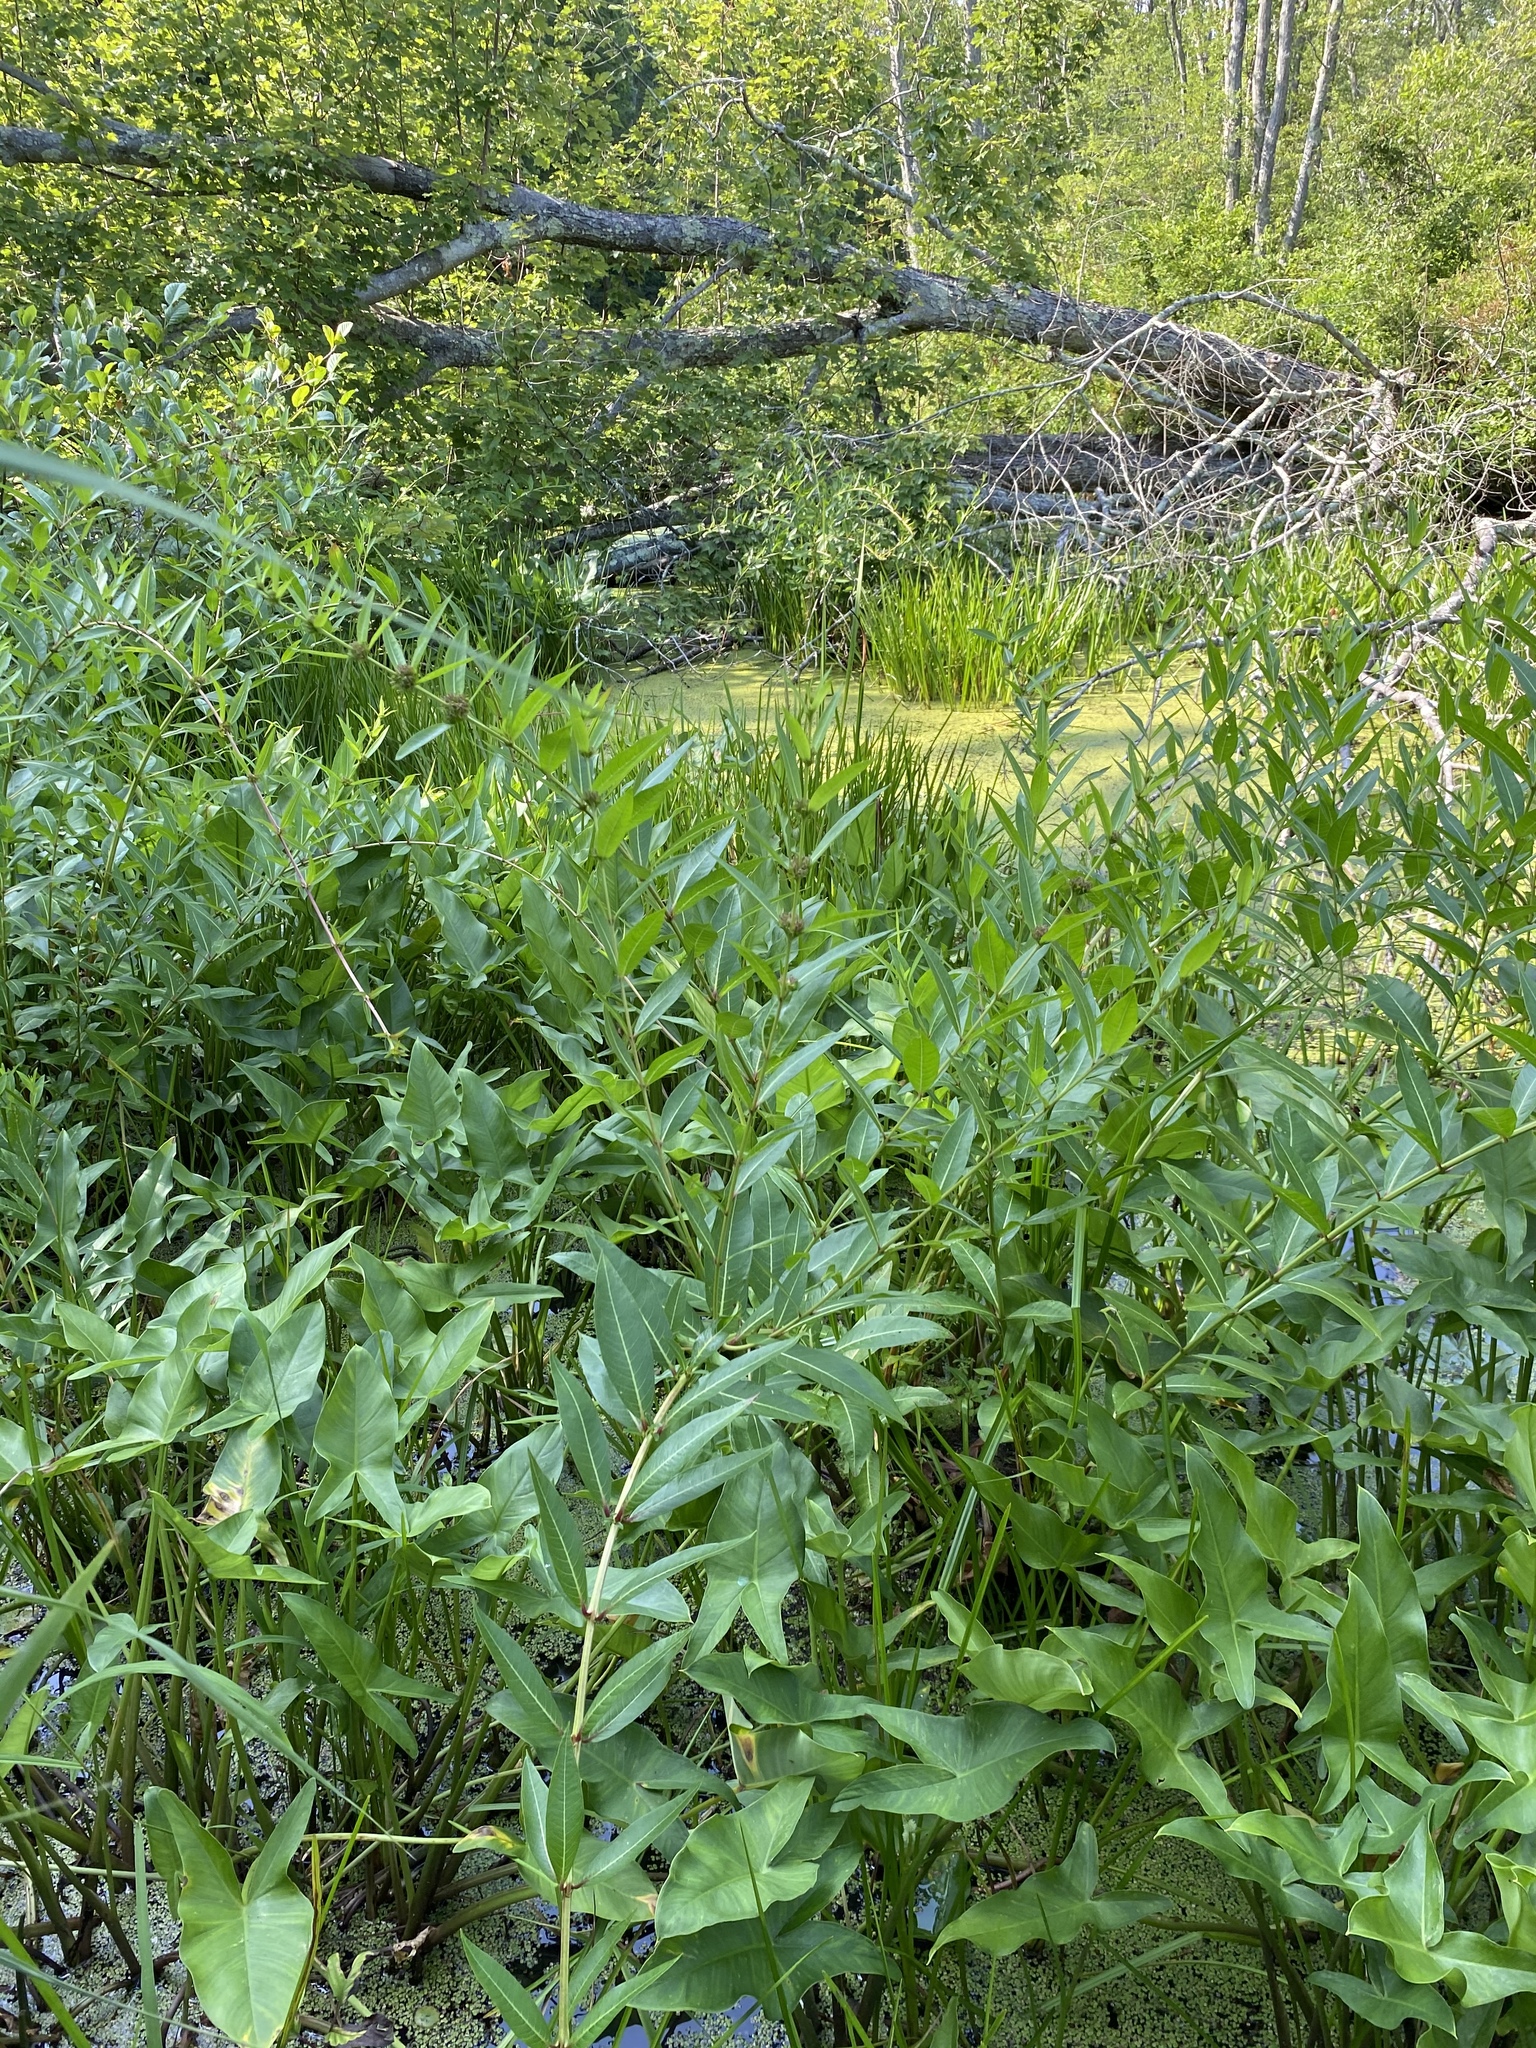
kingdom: Plantae
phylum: Tracheophyta
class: Magnoliopsida
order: Myrtales
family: Lythraceae
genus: Decodon
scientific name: Decodon verticillatus
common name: Hairy swamp loosestrife
